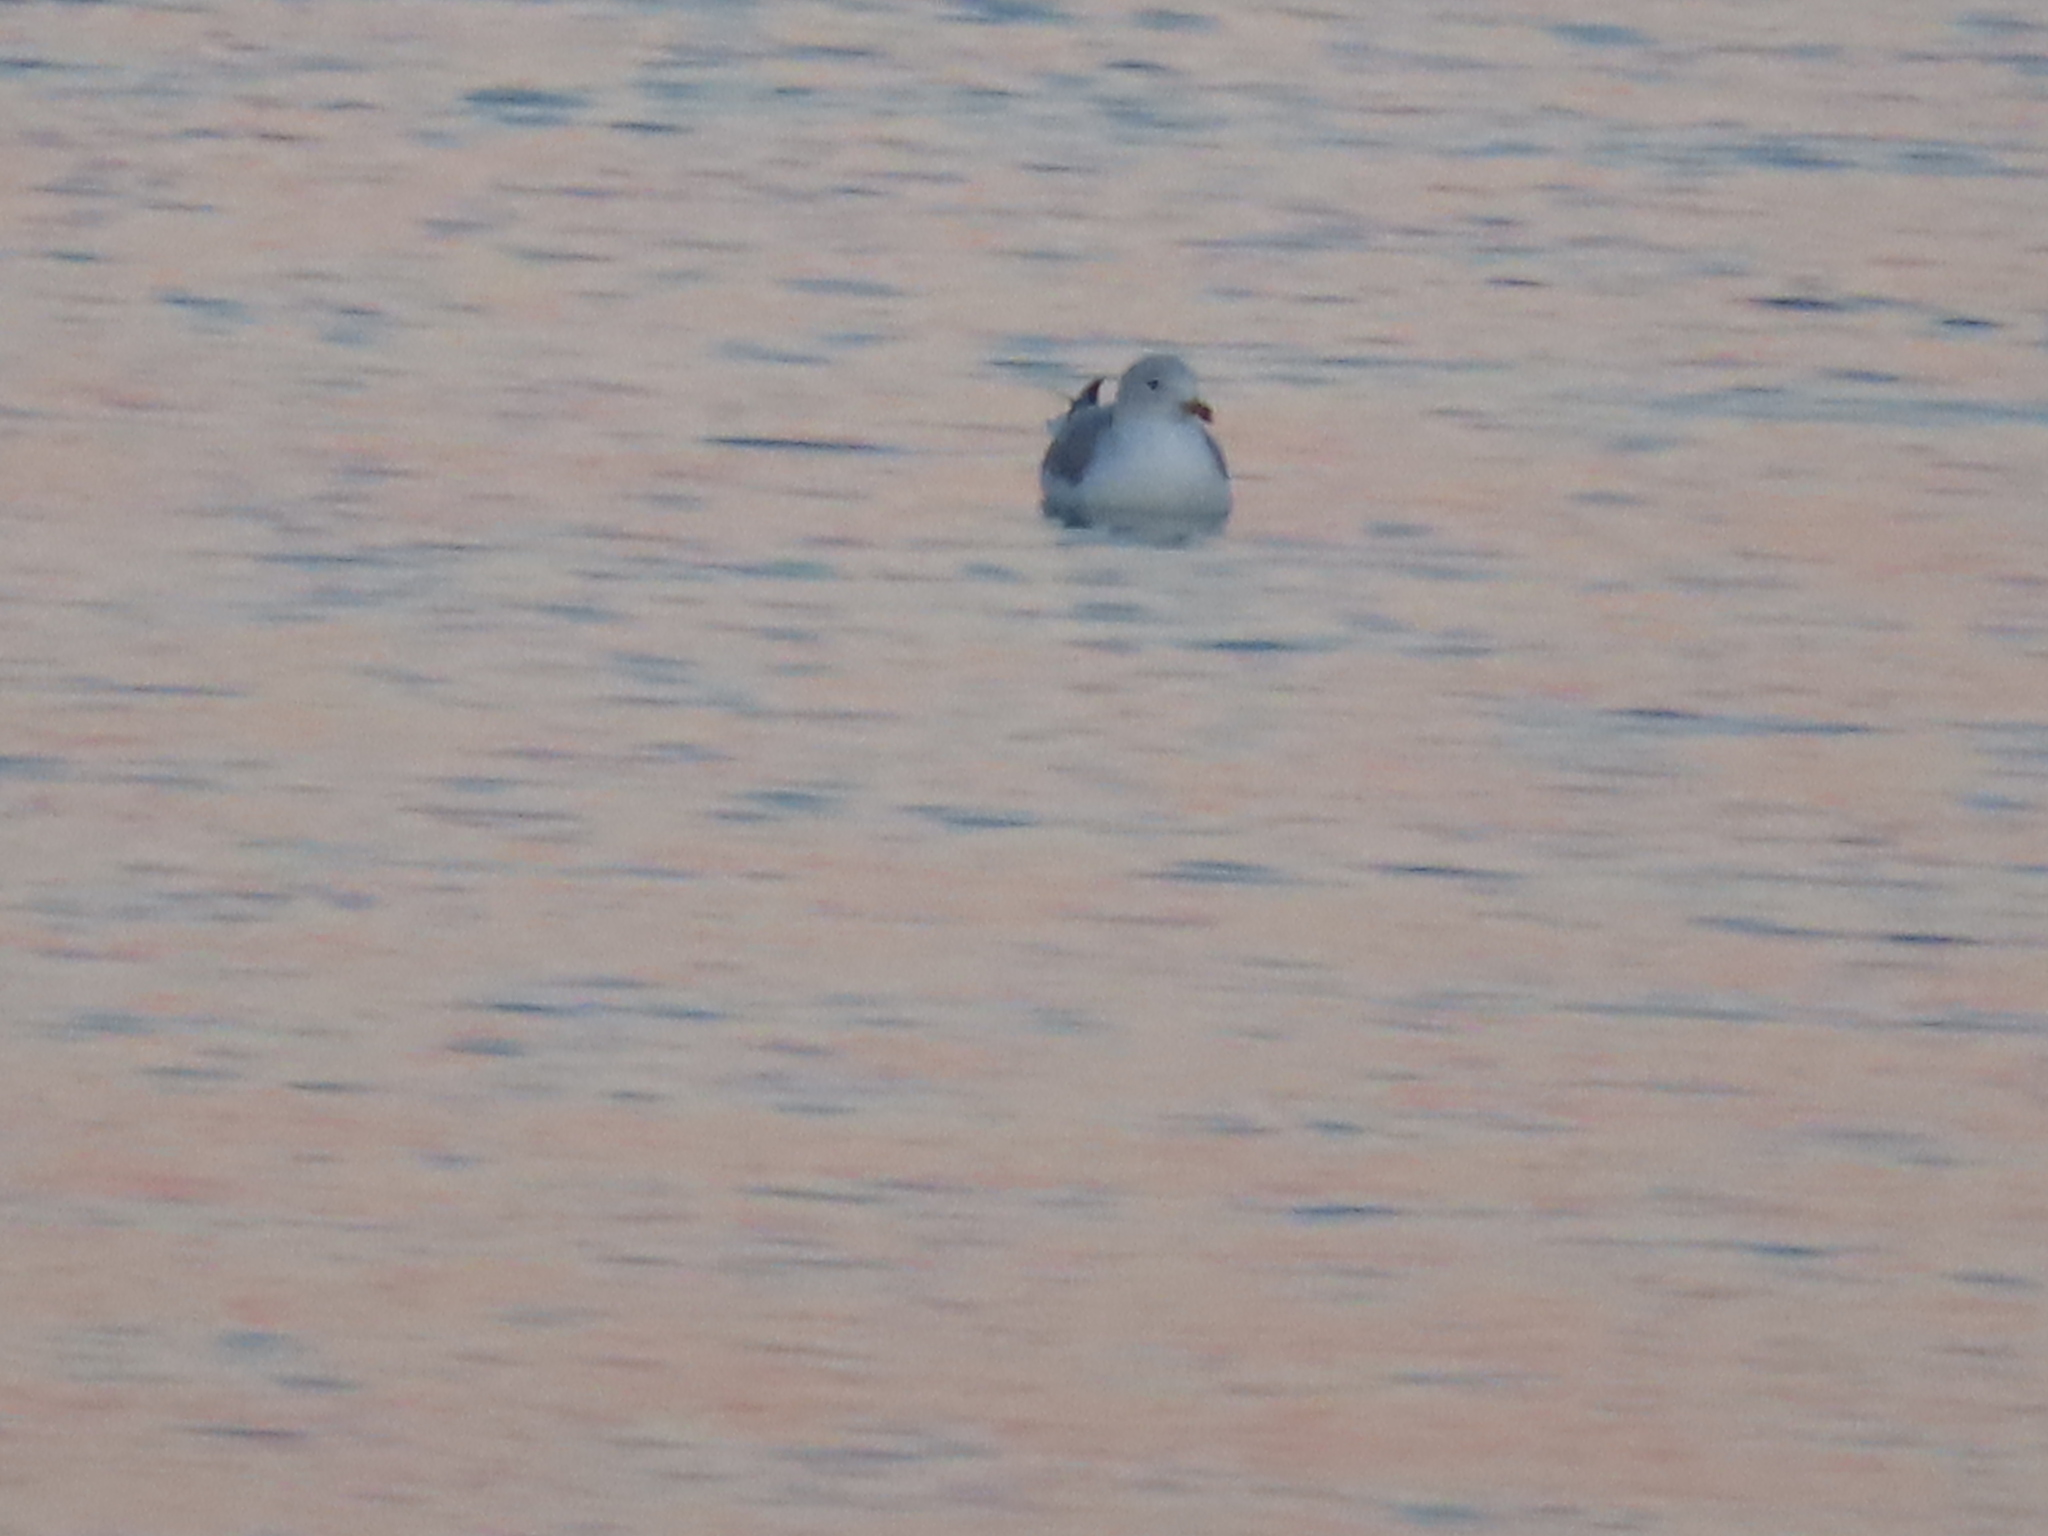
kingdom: Animalia
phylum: Chordata
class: Aves
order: Charadriiformes
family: Laridae
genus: Larus
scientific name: Larus delawarensis
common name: Ring-billed gull
